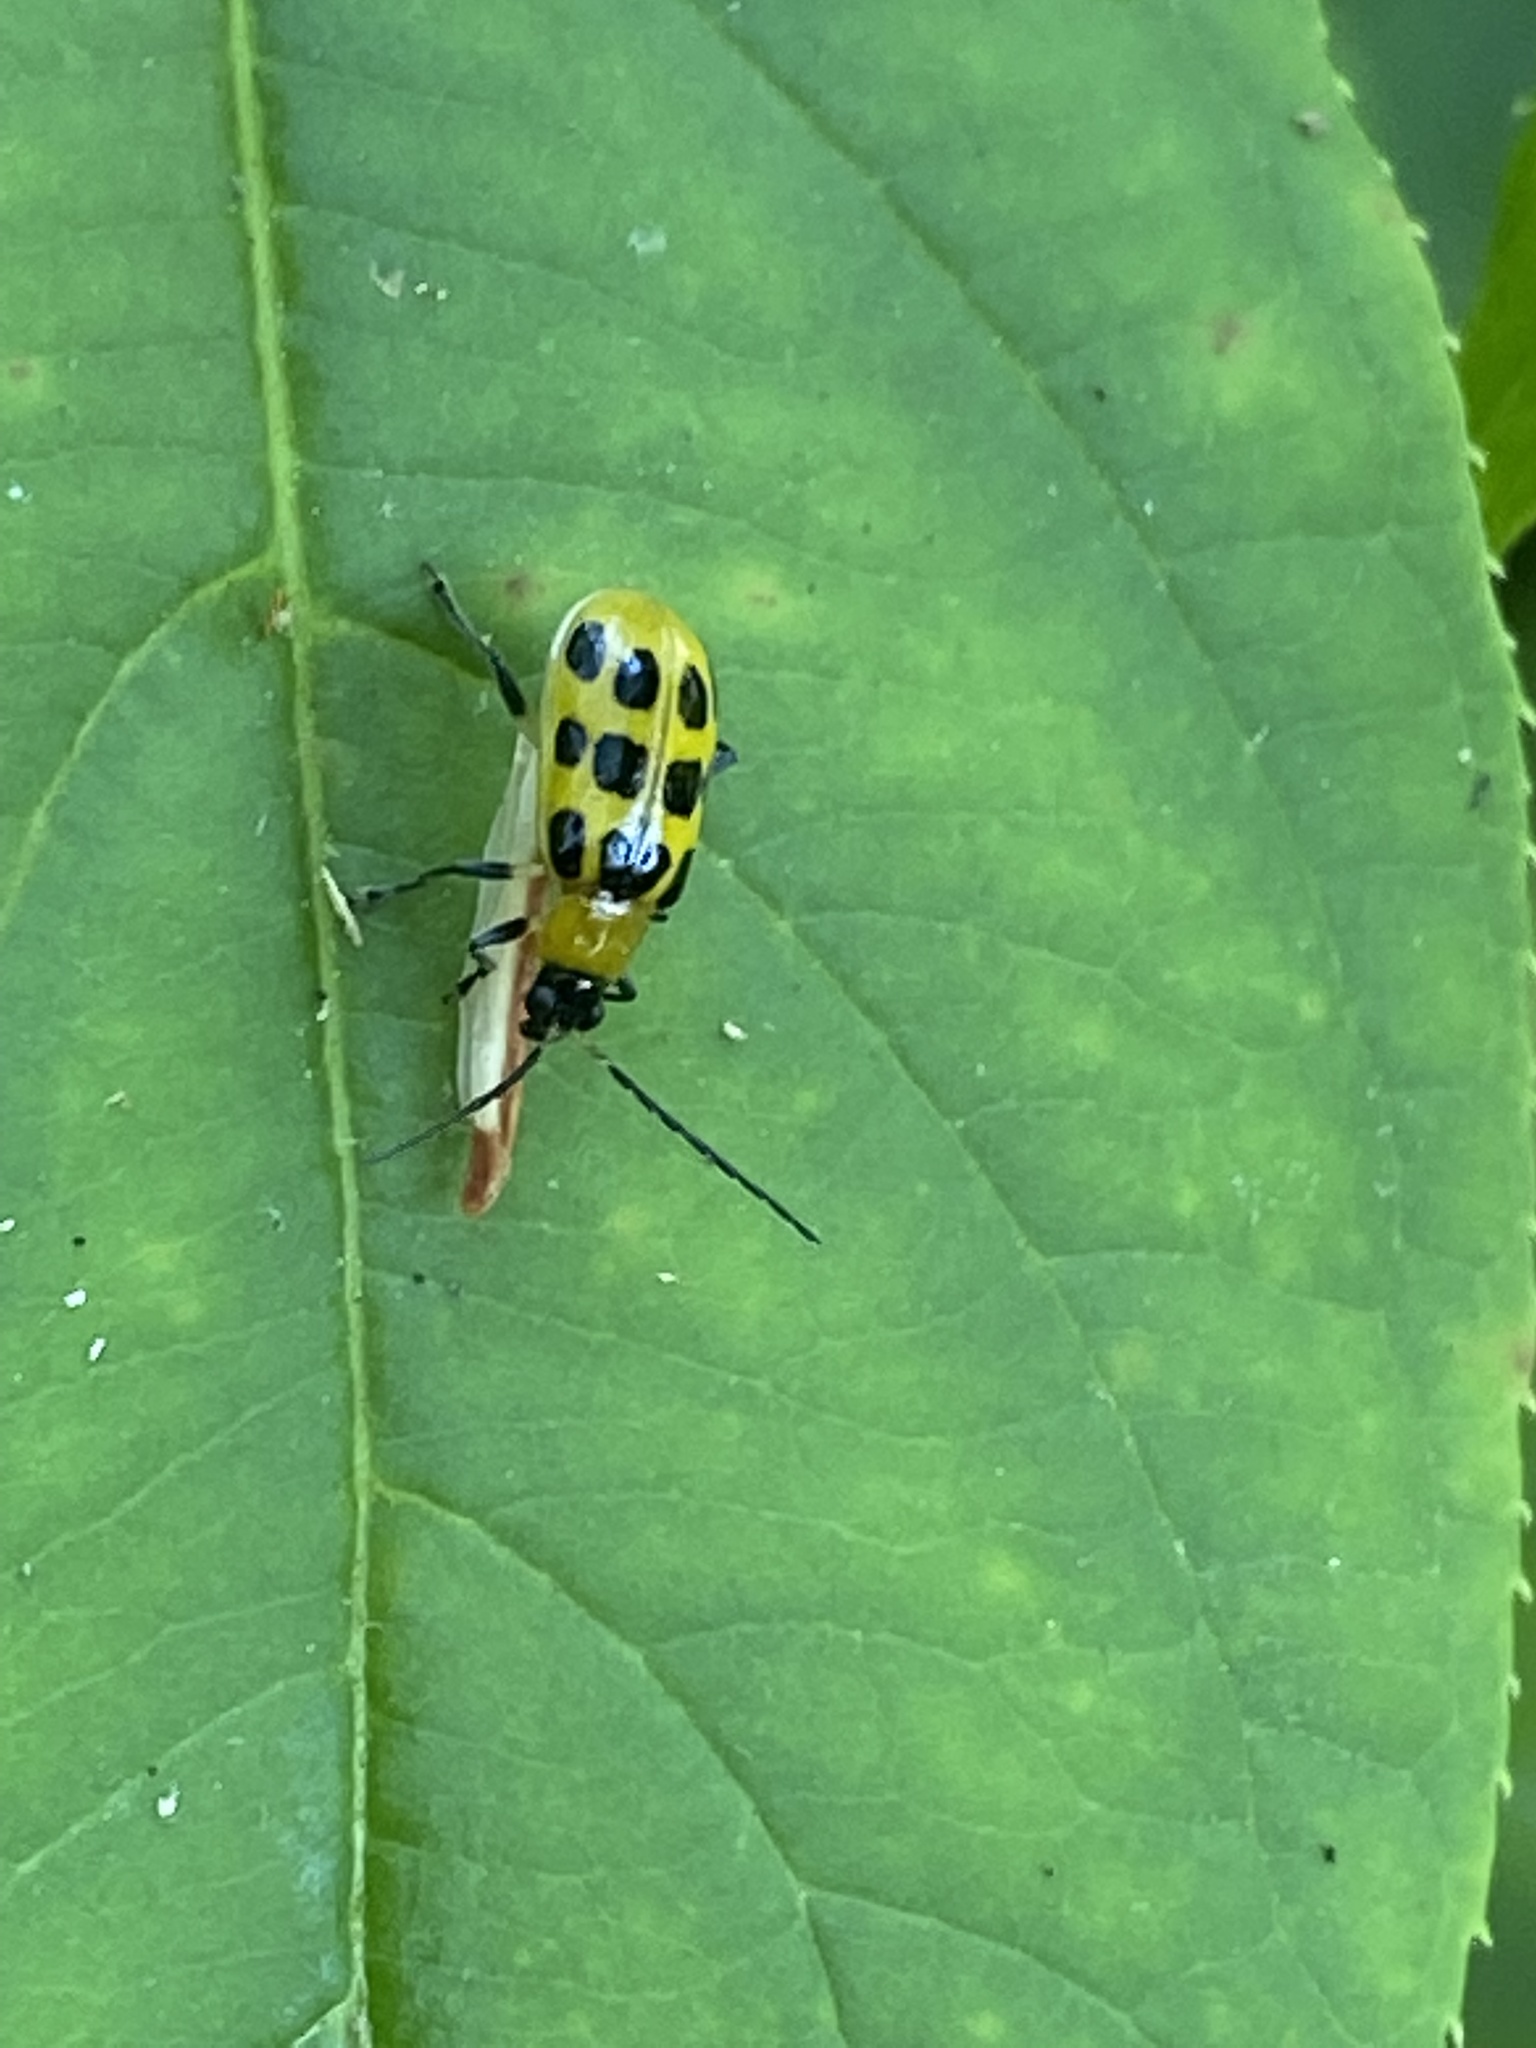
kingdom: Animalia
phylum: Arthropoda
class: Insecta
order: Coleoptera
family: Chrysomelidae
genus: Diabrotica
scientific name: Diabrotica undecimpunctata
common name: Spotted cucumber beetle
